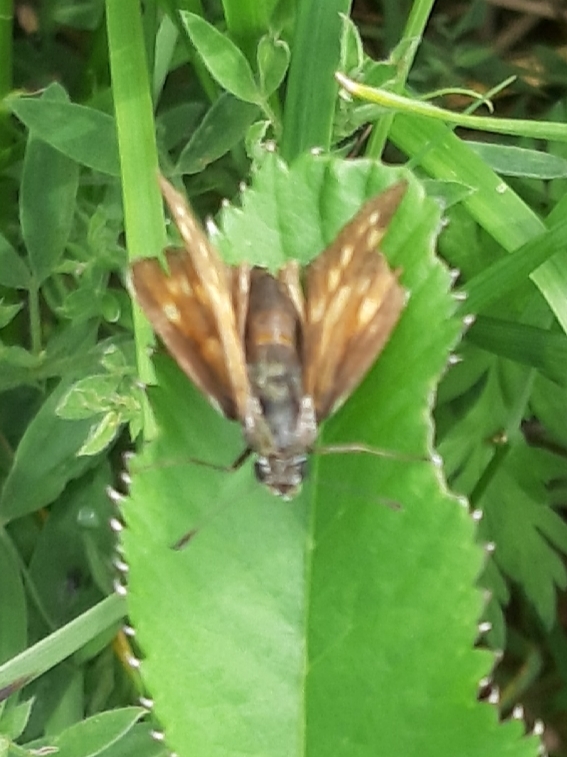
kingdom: Animalia
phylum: Arthropoda
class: Insecta
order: Lepidoptera
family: Hesperiidae
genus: Ochlodes
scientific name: Ochlodes venata
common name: Large skipper
